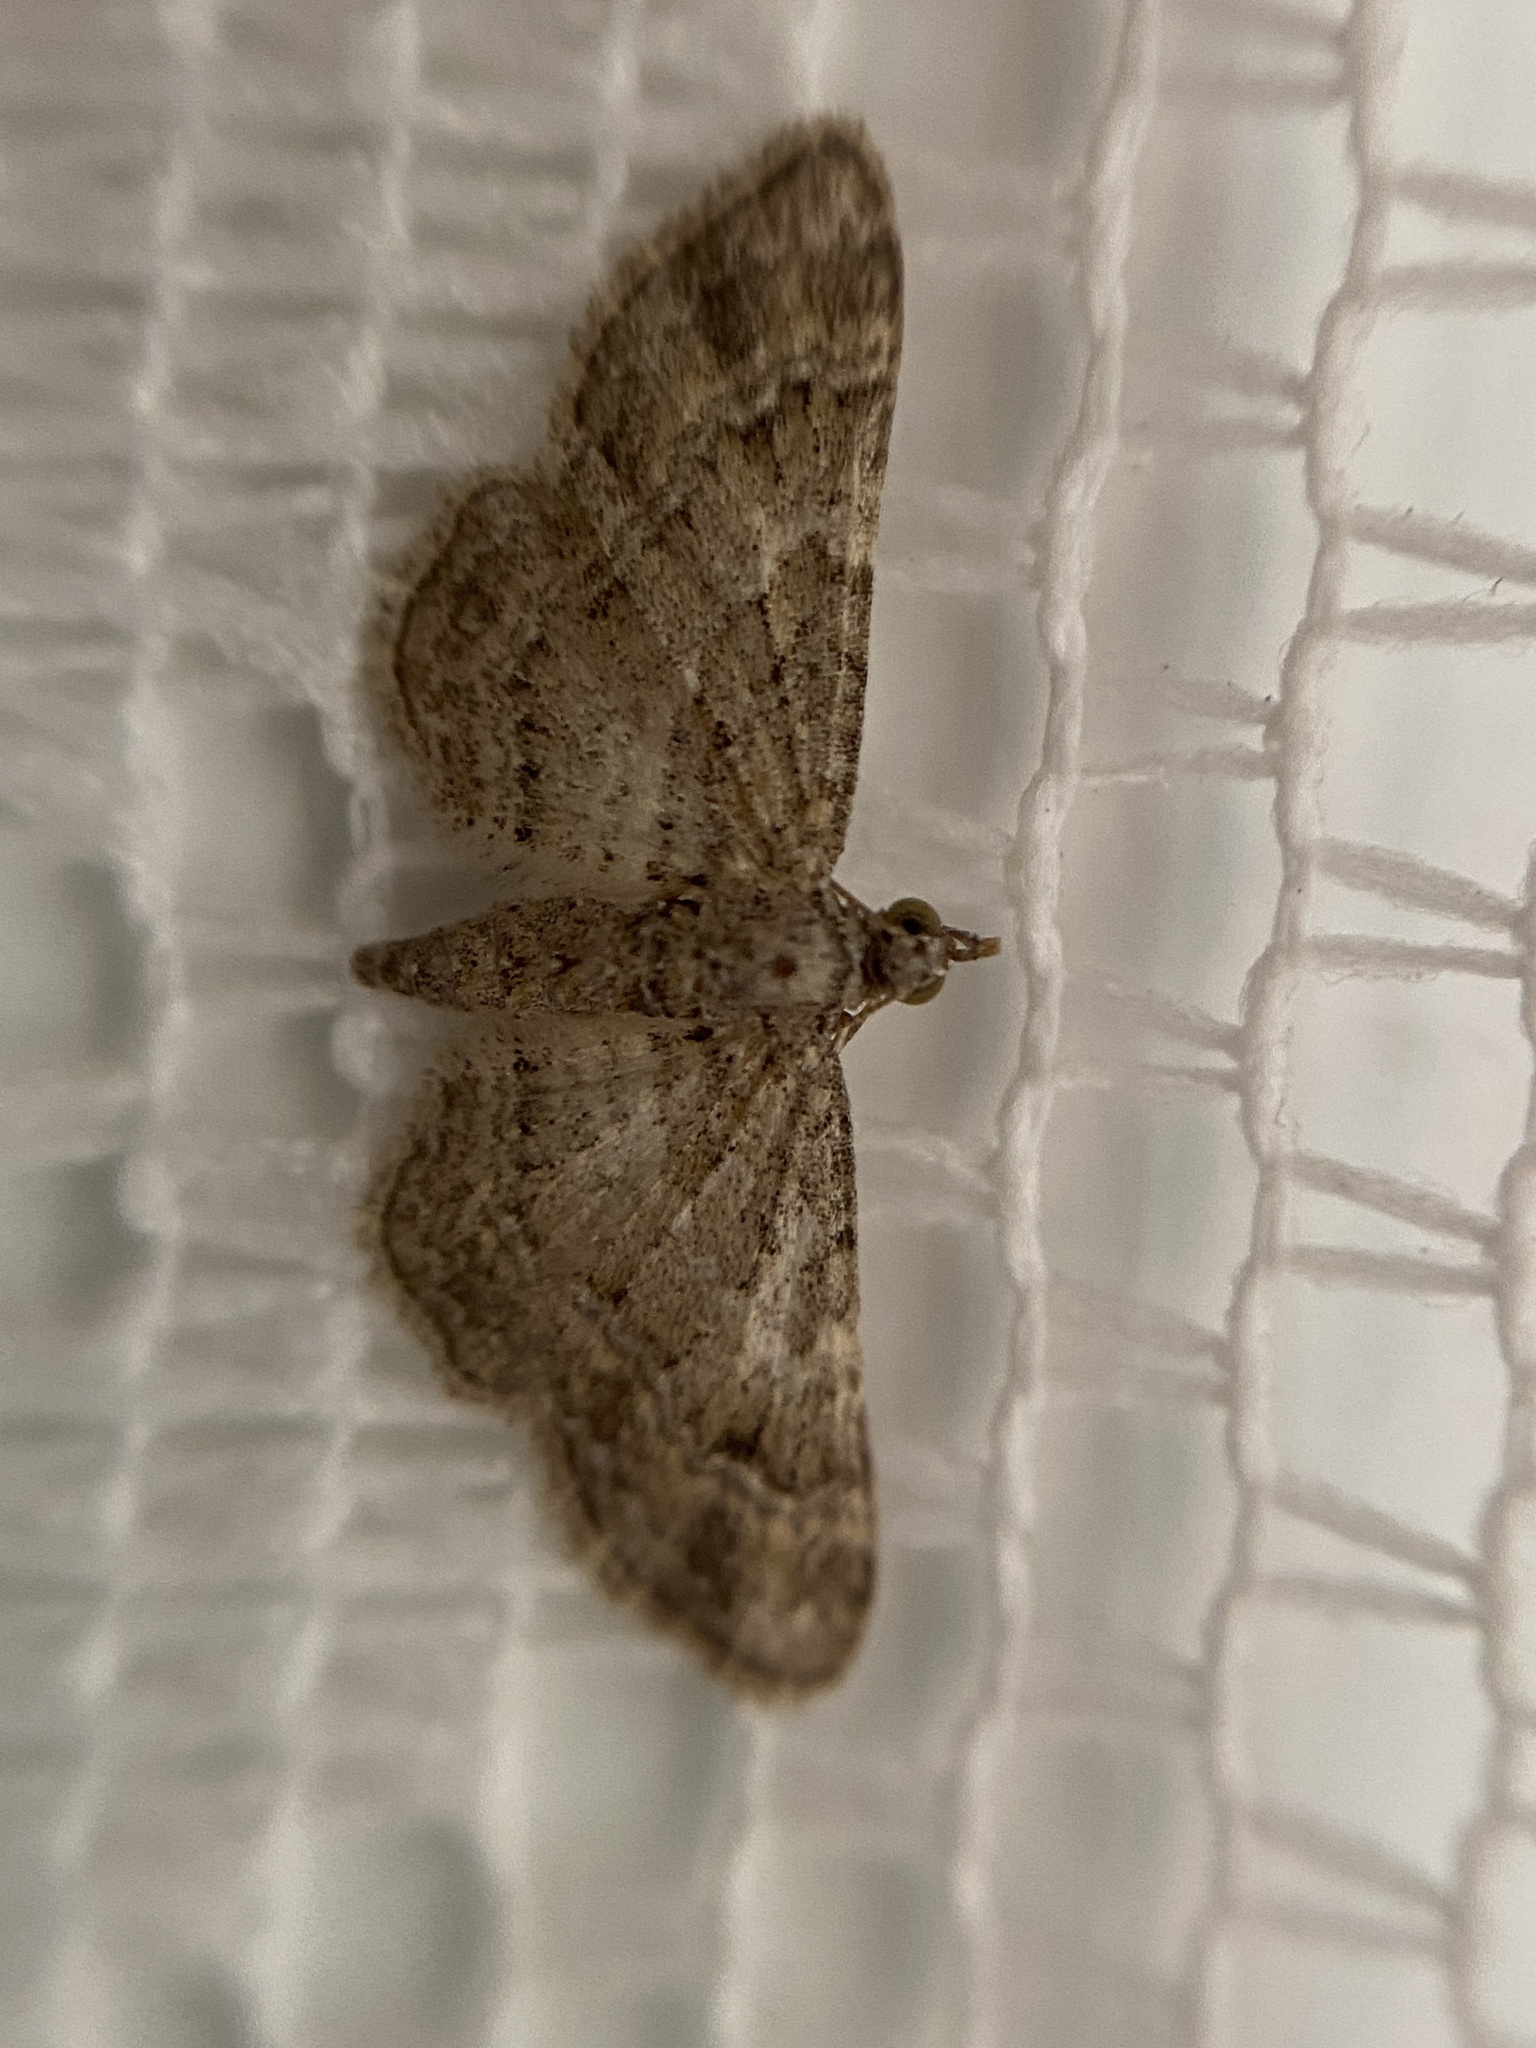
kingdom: Animalia
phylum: Arthropoda
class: Insecta
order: Lepidoptera
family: Geometridae
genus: Gymnoscelis
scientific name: Gymnoscelis rufifasciata
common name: Double-striped pug
